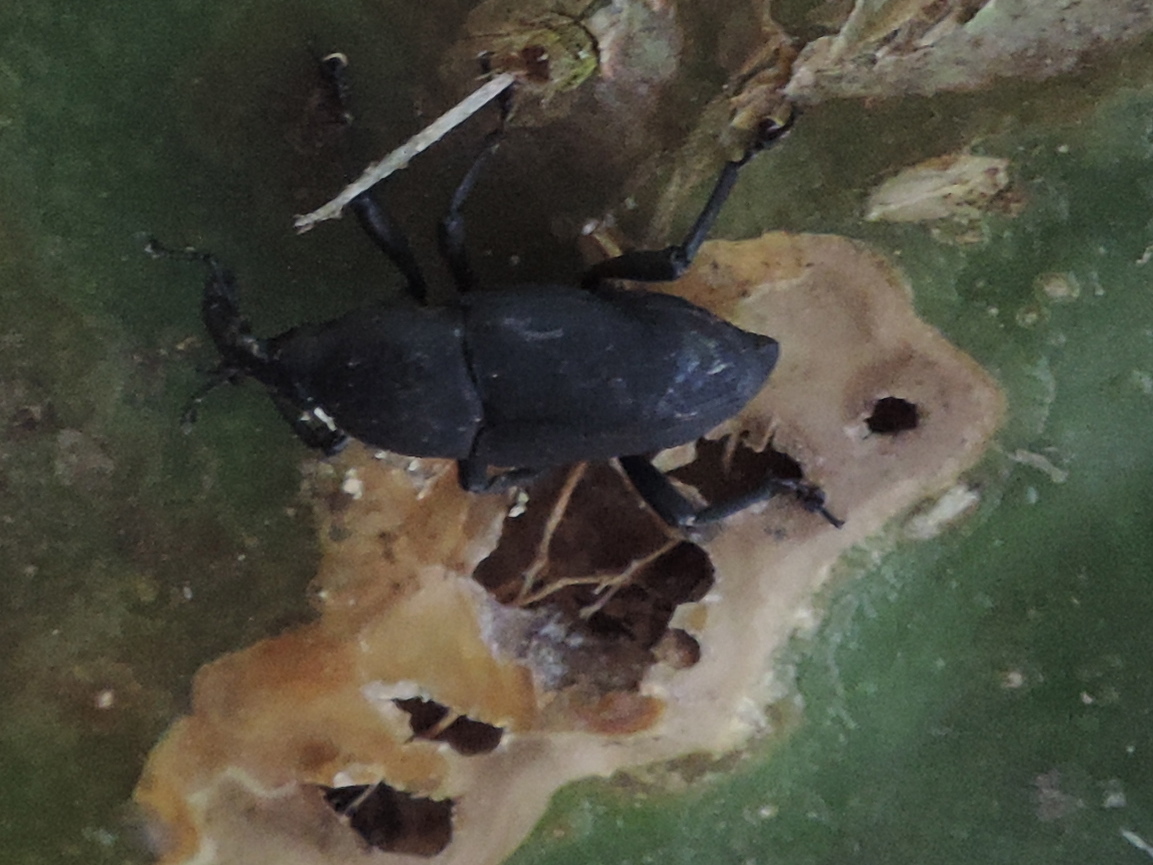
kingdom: Animalia
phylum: Arthropoda
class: Insecta
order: Coleoptera
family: Dryophthoridae
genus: Cactophagus
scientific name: Cactophagus spinolae
